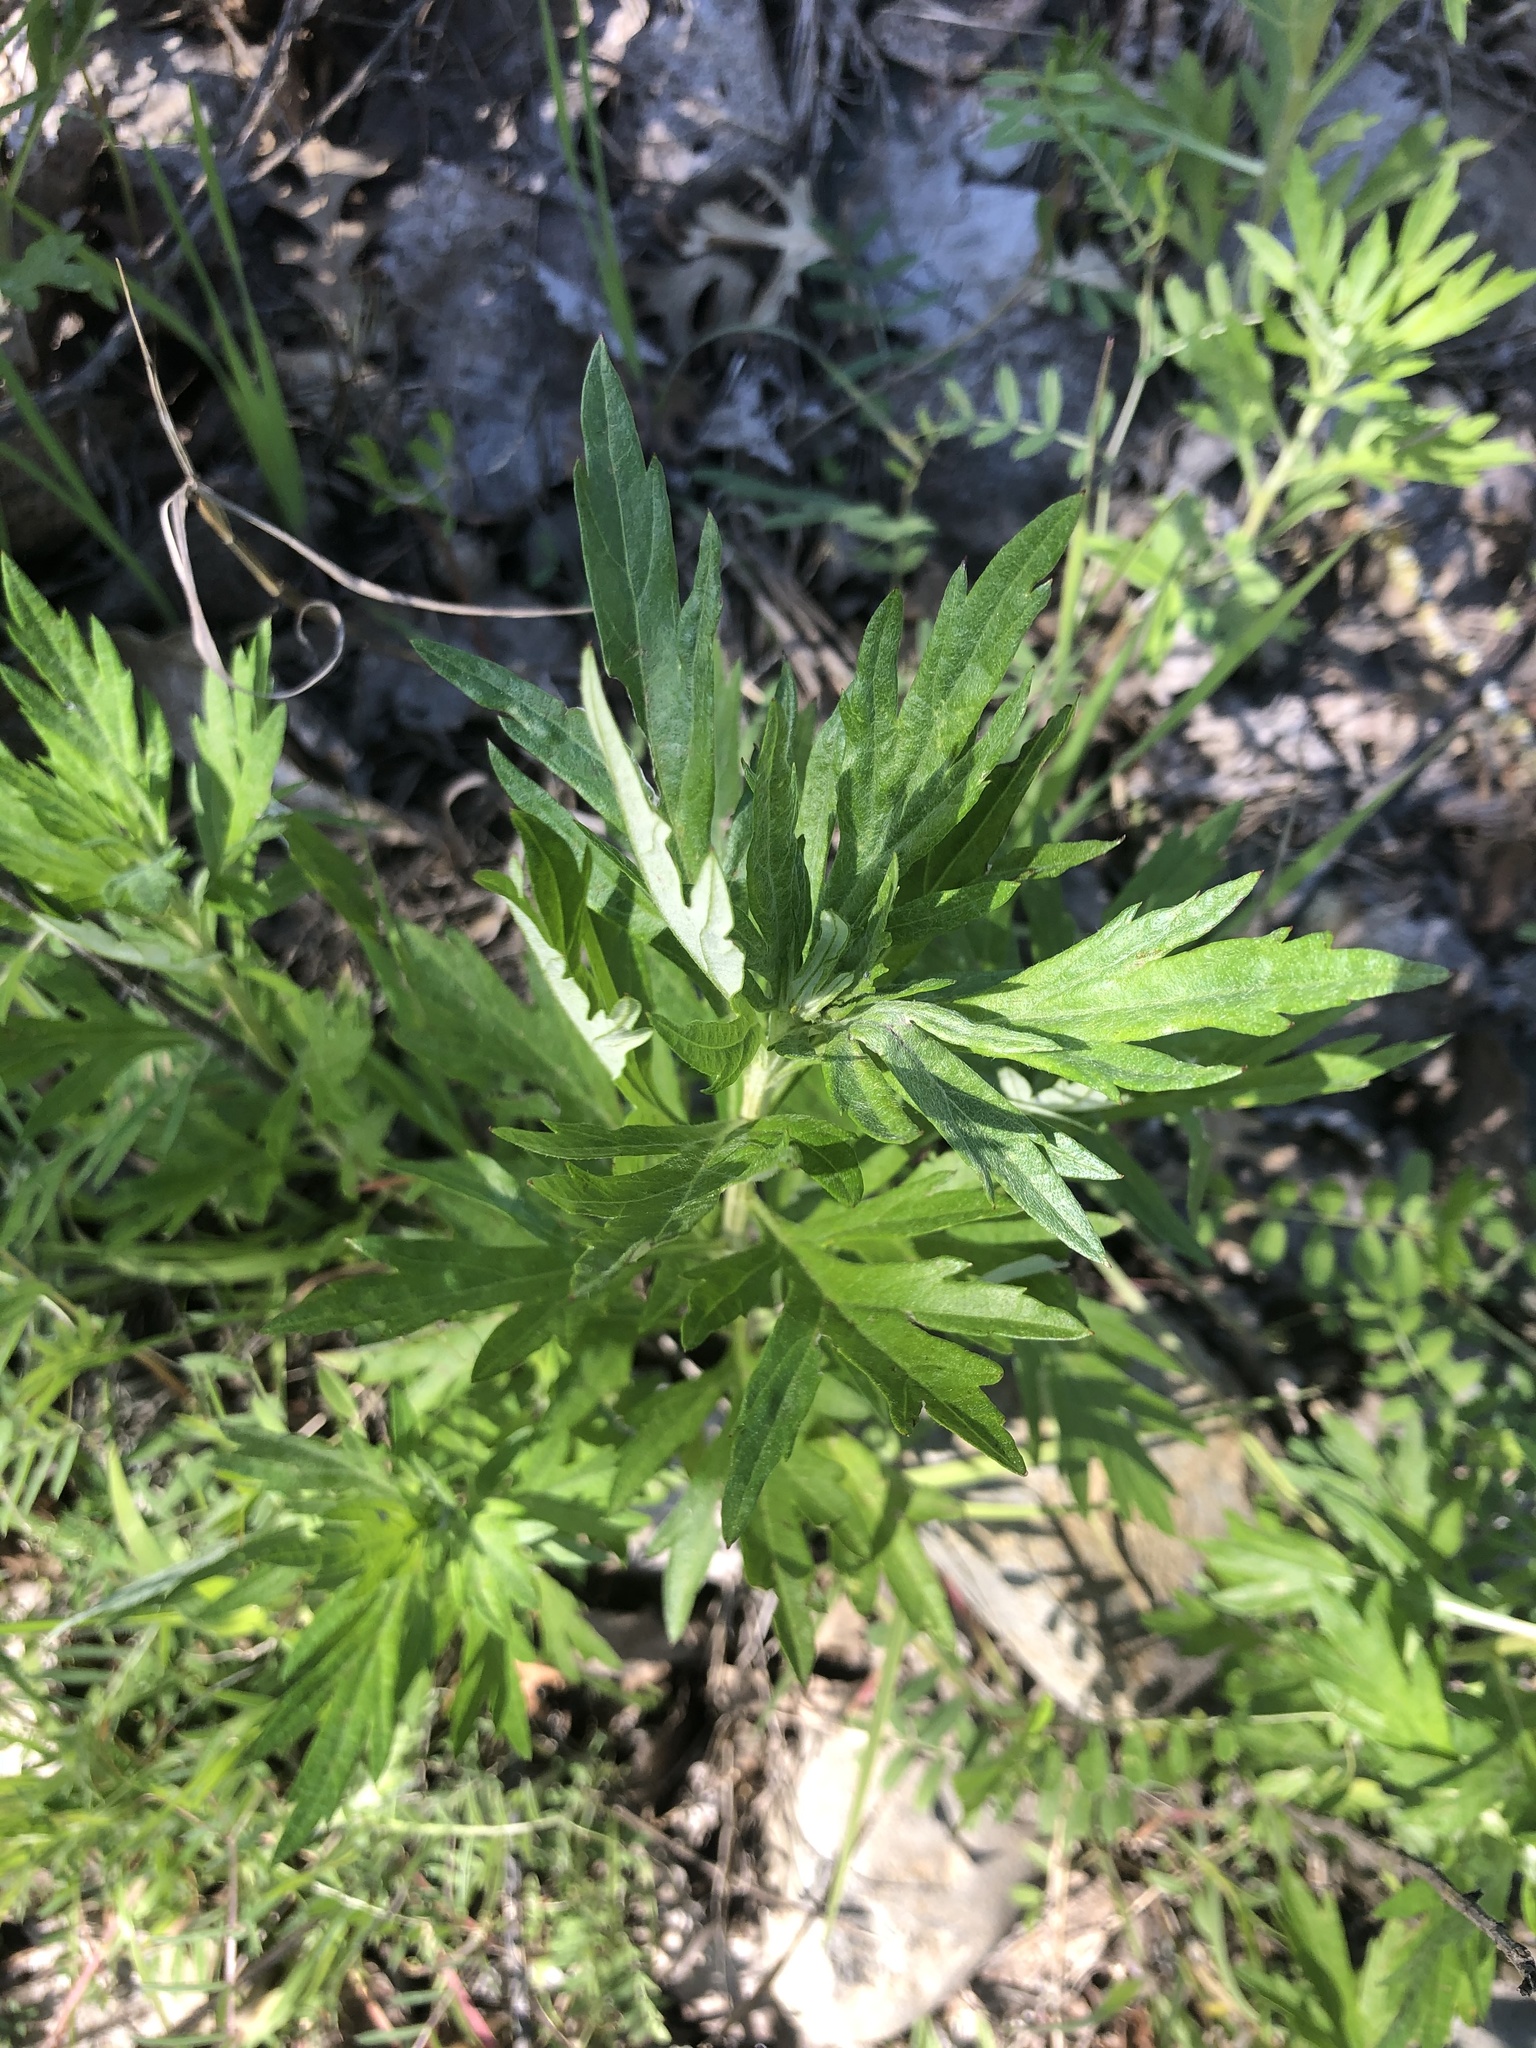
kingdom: Plantae
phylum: Tracheophyta
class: Magnoliopsida
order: Asterales
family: Asteraceae
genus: Artemisia
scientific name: Artemisia douglasiana
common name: Northwest mugwort
